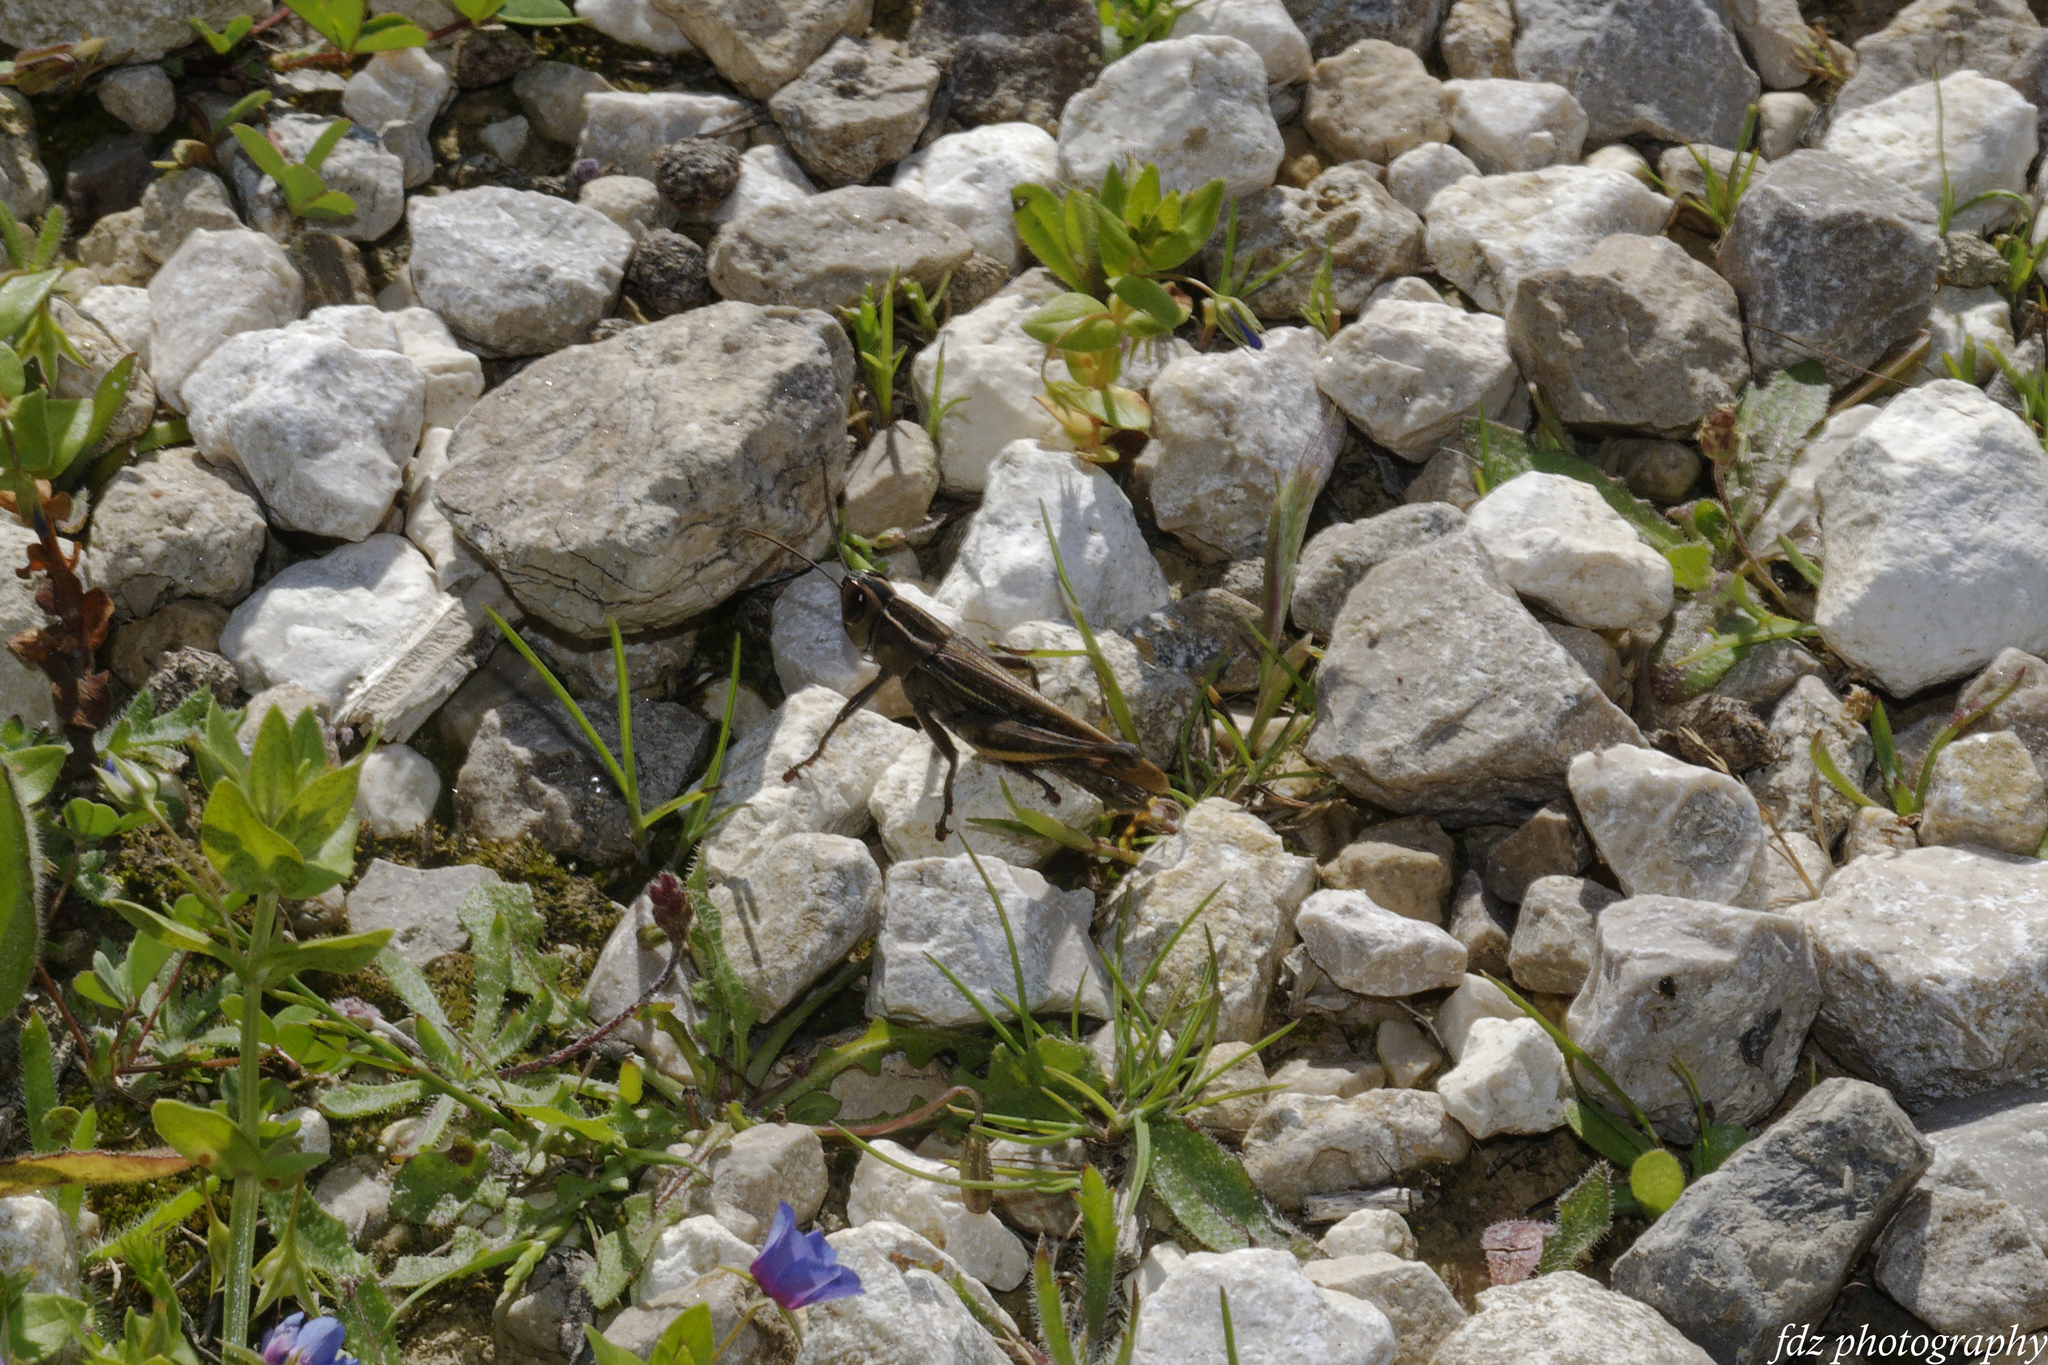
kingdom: Animalia
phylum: Arthropoda
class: Insecta
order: Orthoptera
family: Acrididae
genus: Eyprepocnemis
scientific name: Eyprepocnemis plorans
